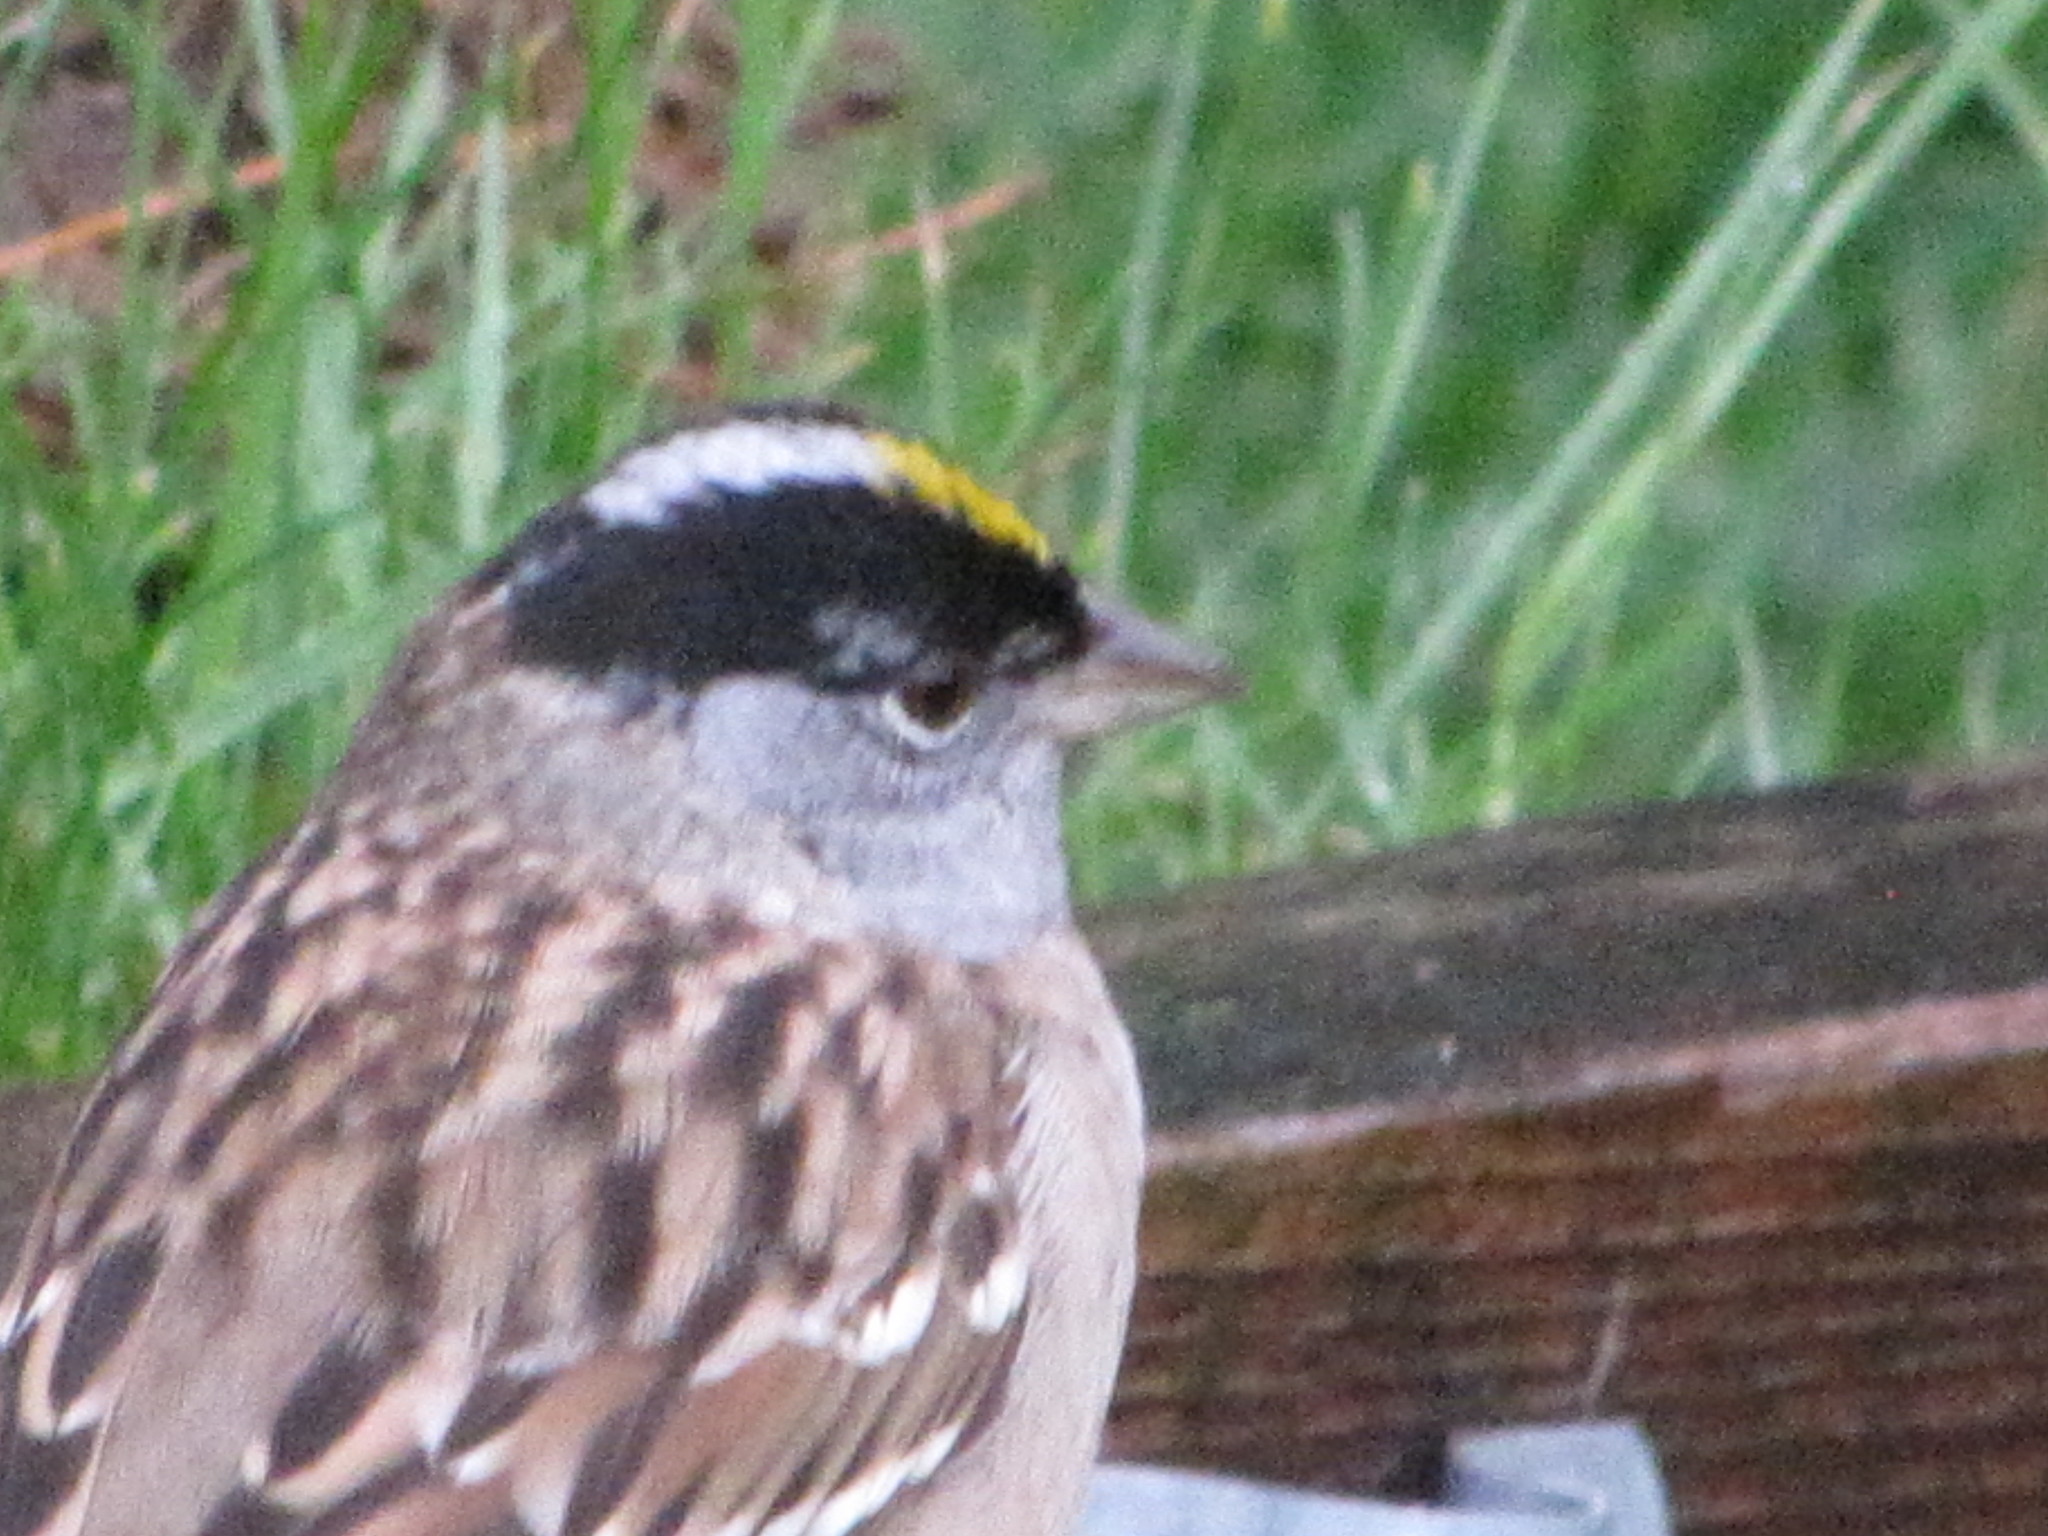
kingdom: Animalia
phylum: Chordata
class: Aves
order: Passeriformes
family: Passerellidae
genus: Zonotrichia
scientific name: Zonotrichia atricapilla
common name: Golden-crowned sparrow
